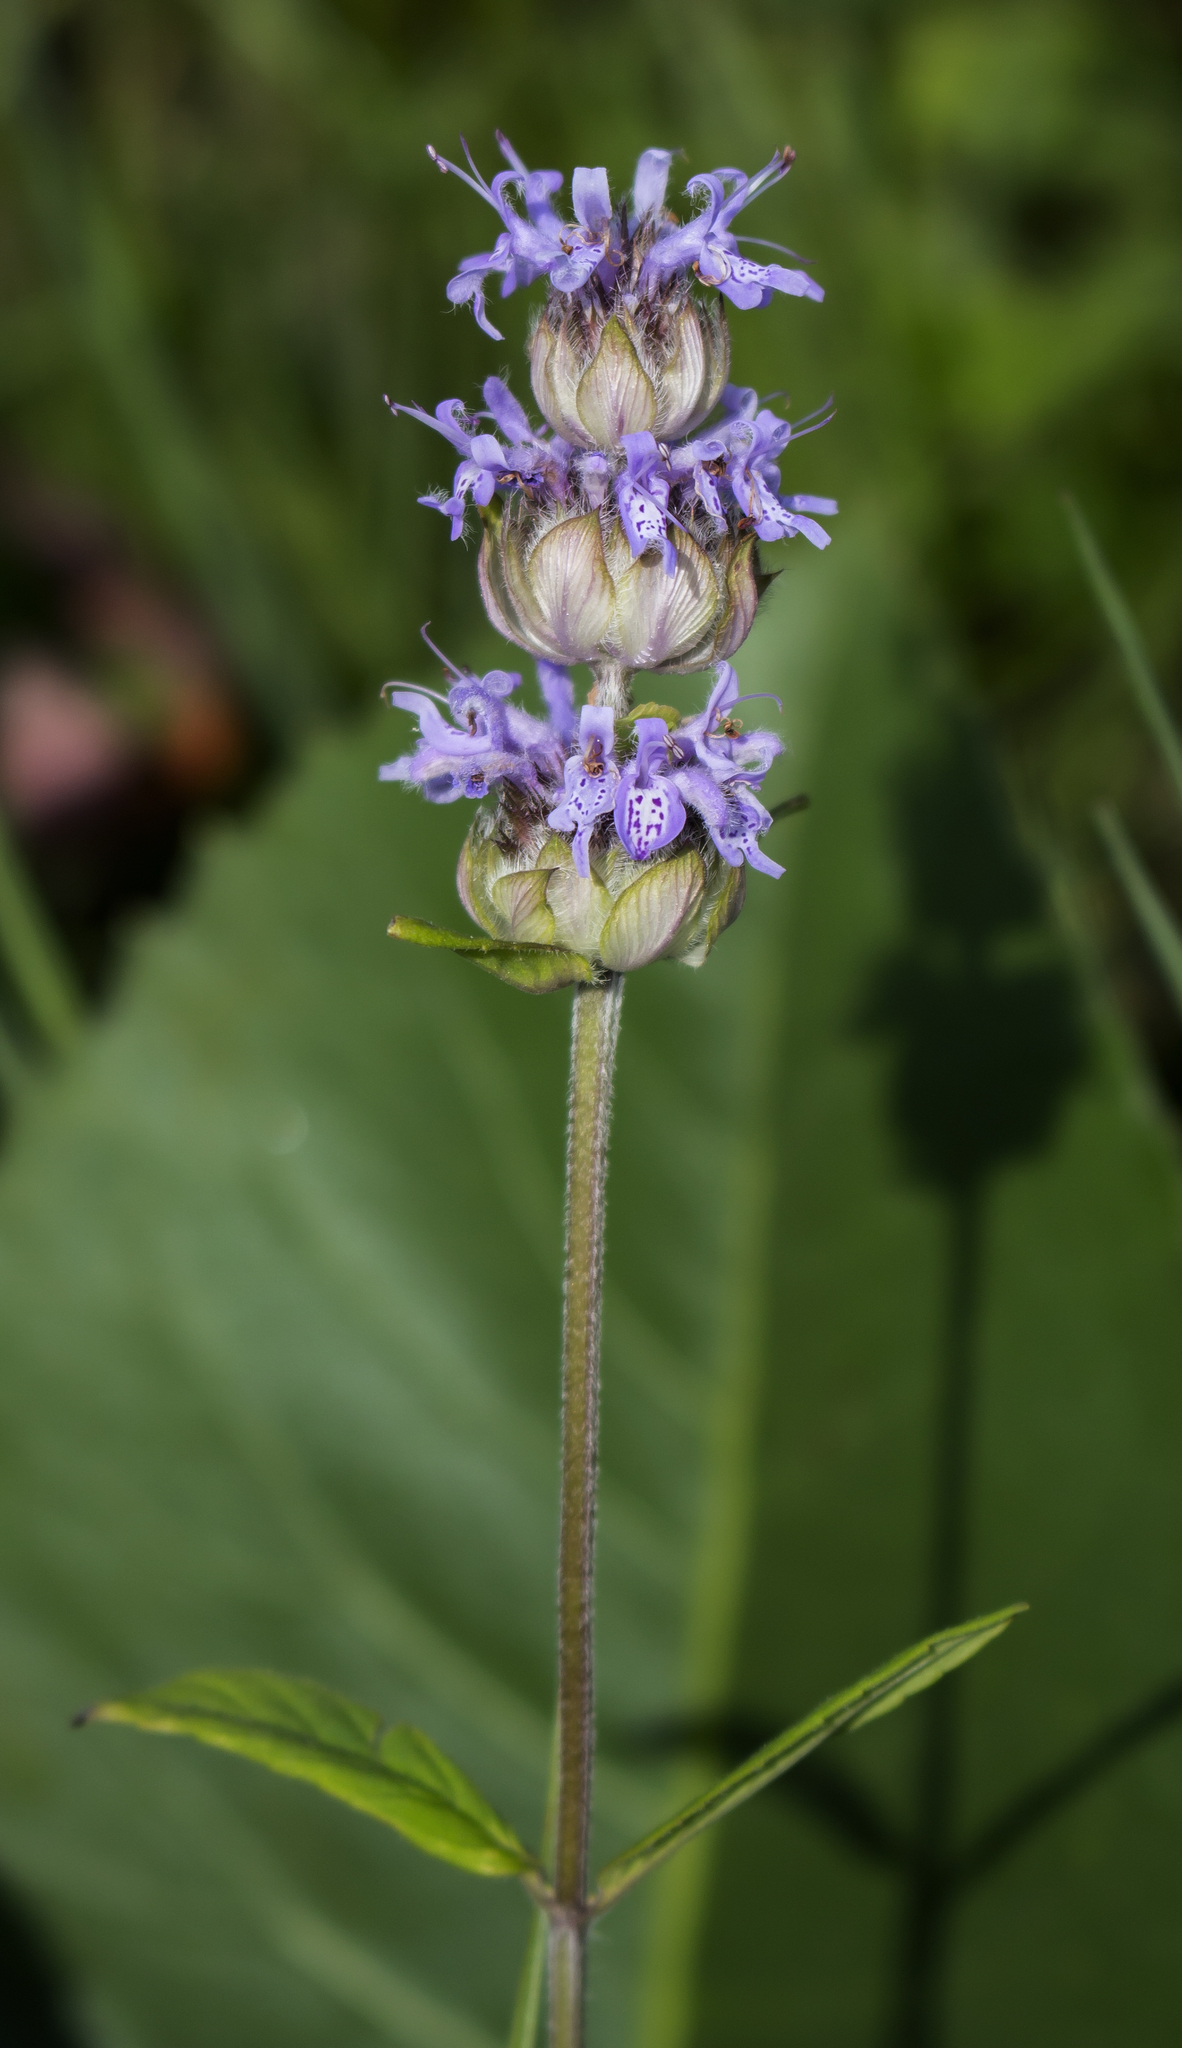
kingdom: Plantae
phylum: Tracheophyta
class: Magnoliopsida
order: Lamiales
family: Lamiaceae
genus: Blephilia
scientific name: Blephilia ciliata
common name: Downy blephilia
